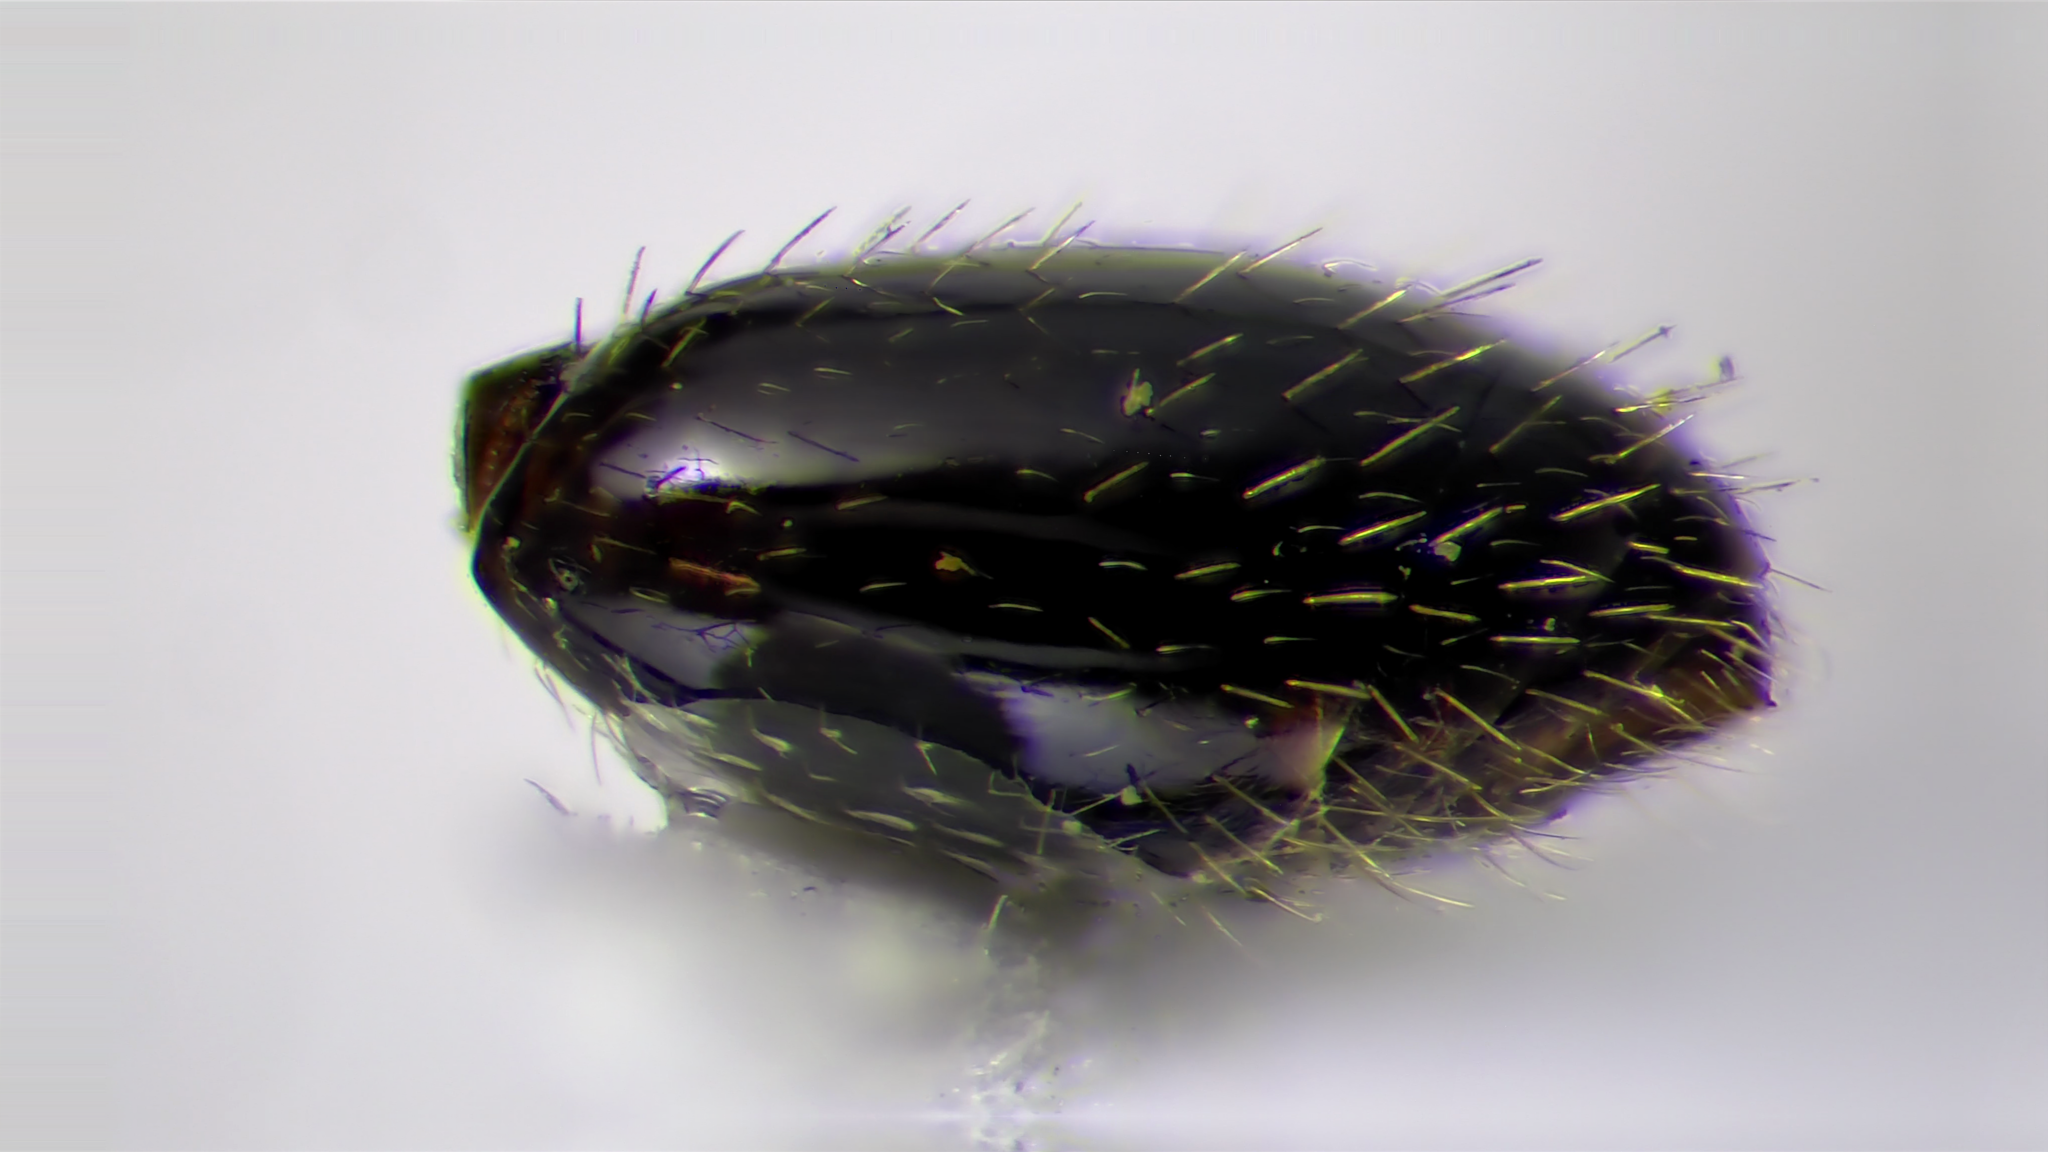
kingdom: Animalia
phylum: Arthropoda
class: Insecta
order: Hymenoptera
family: Formicidae
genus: Temnothorax
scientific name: Temnothorax longispinosus
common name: Long-spined acorn ant
